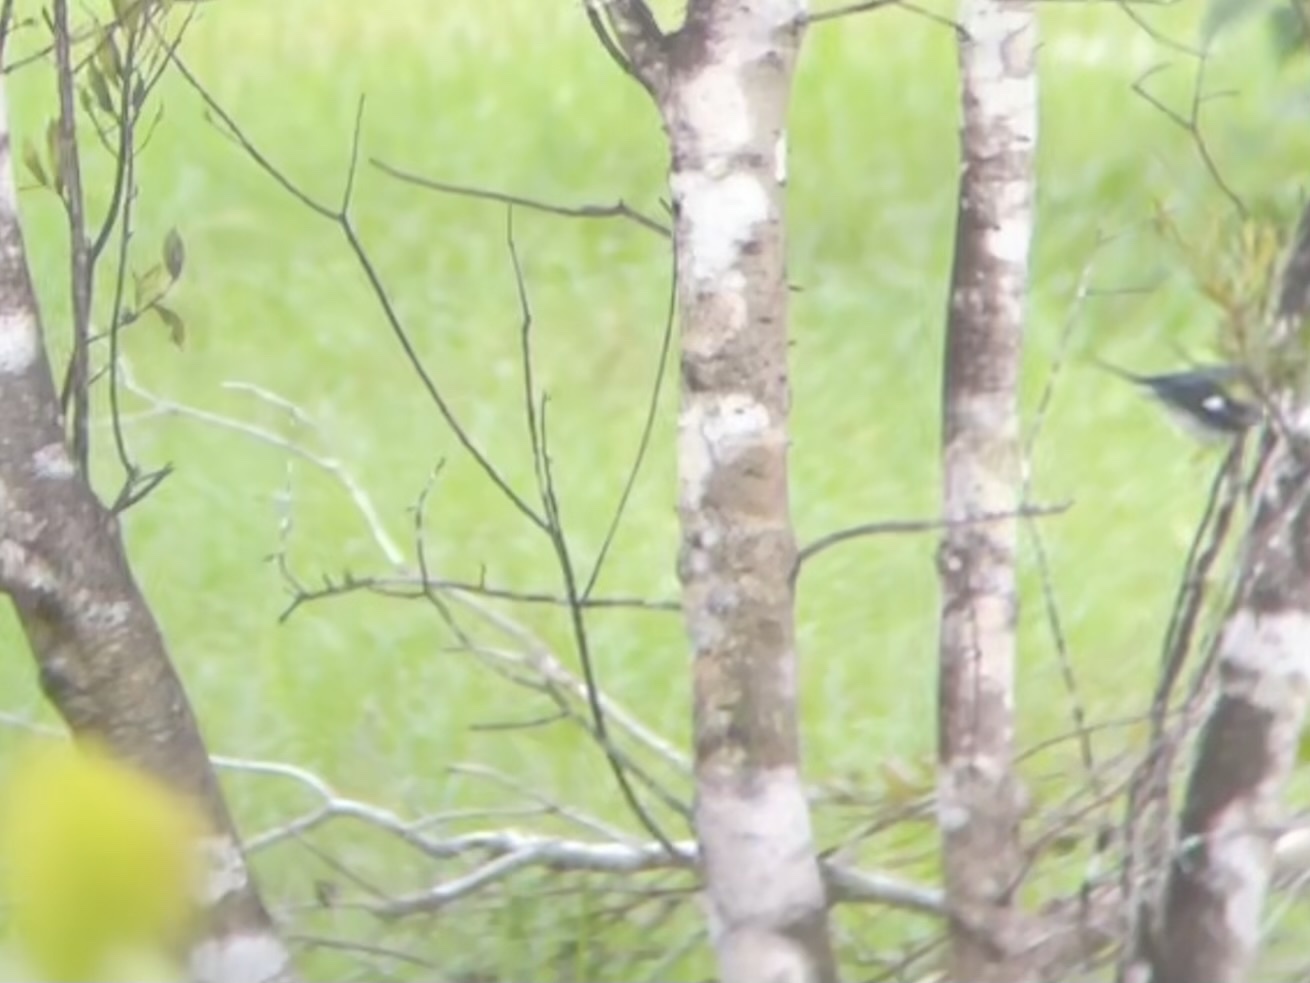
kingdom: Animalia
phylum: Chordata
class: Aves
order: Passeriformes
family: Parulidae
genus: Setophaga
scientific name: Setophaga caerulescens
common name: Black-throated blue warbler
